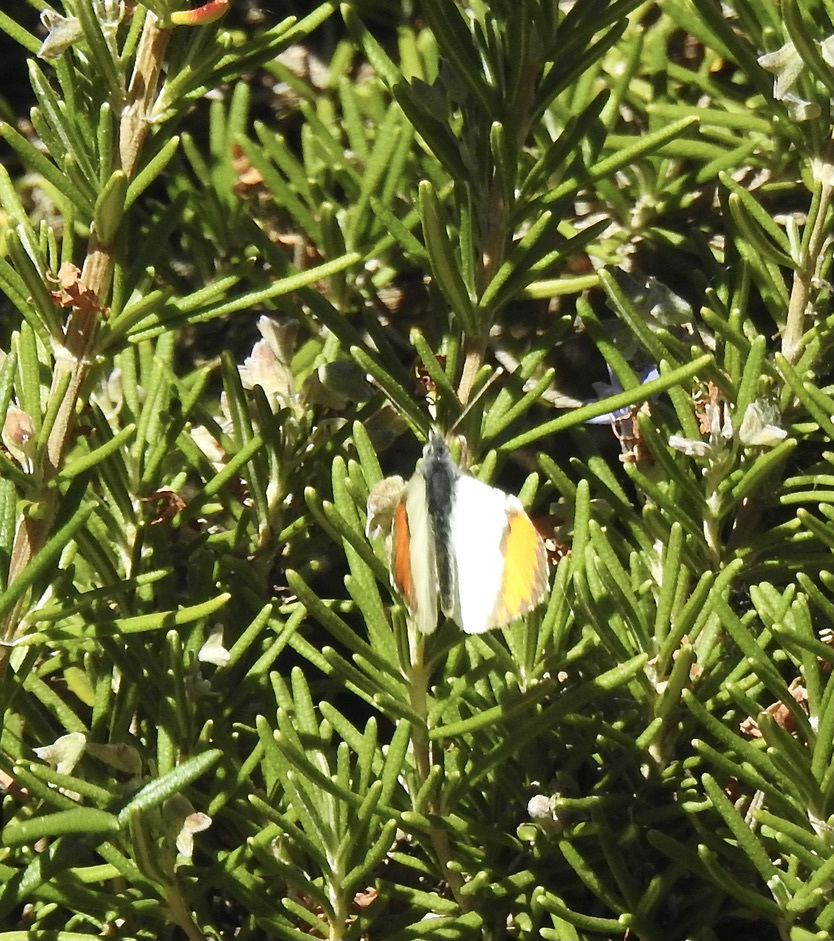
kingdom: Animalia
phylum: Arthropoda
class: Insecta
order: Lepidoptera
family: Pieridae
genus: Anthocharis
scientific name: Anthocharis sara
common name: Sara's orangetip
